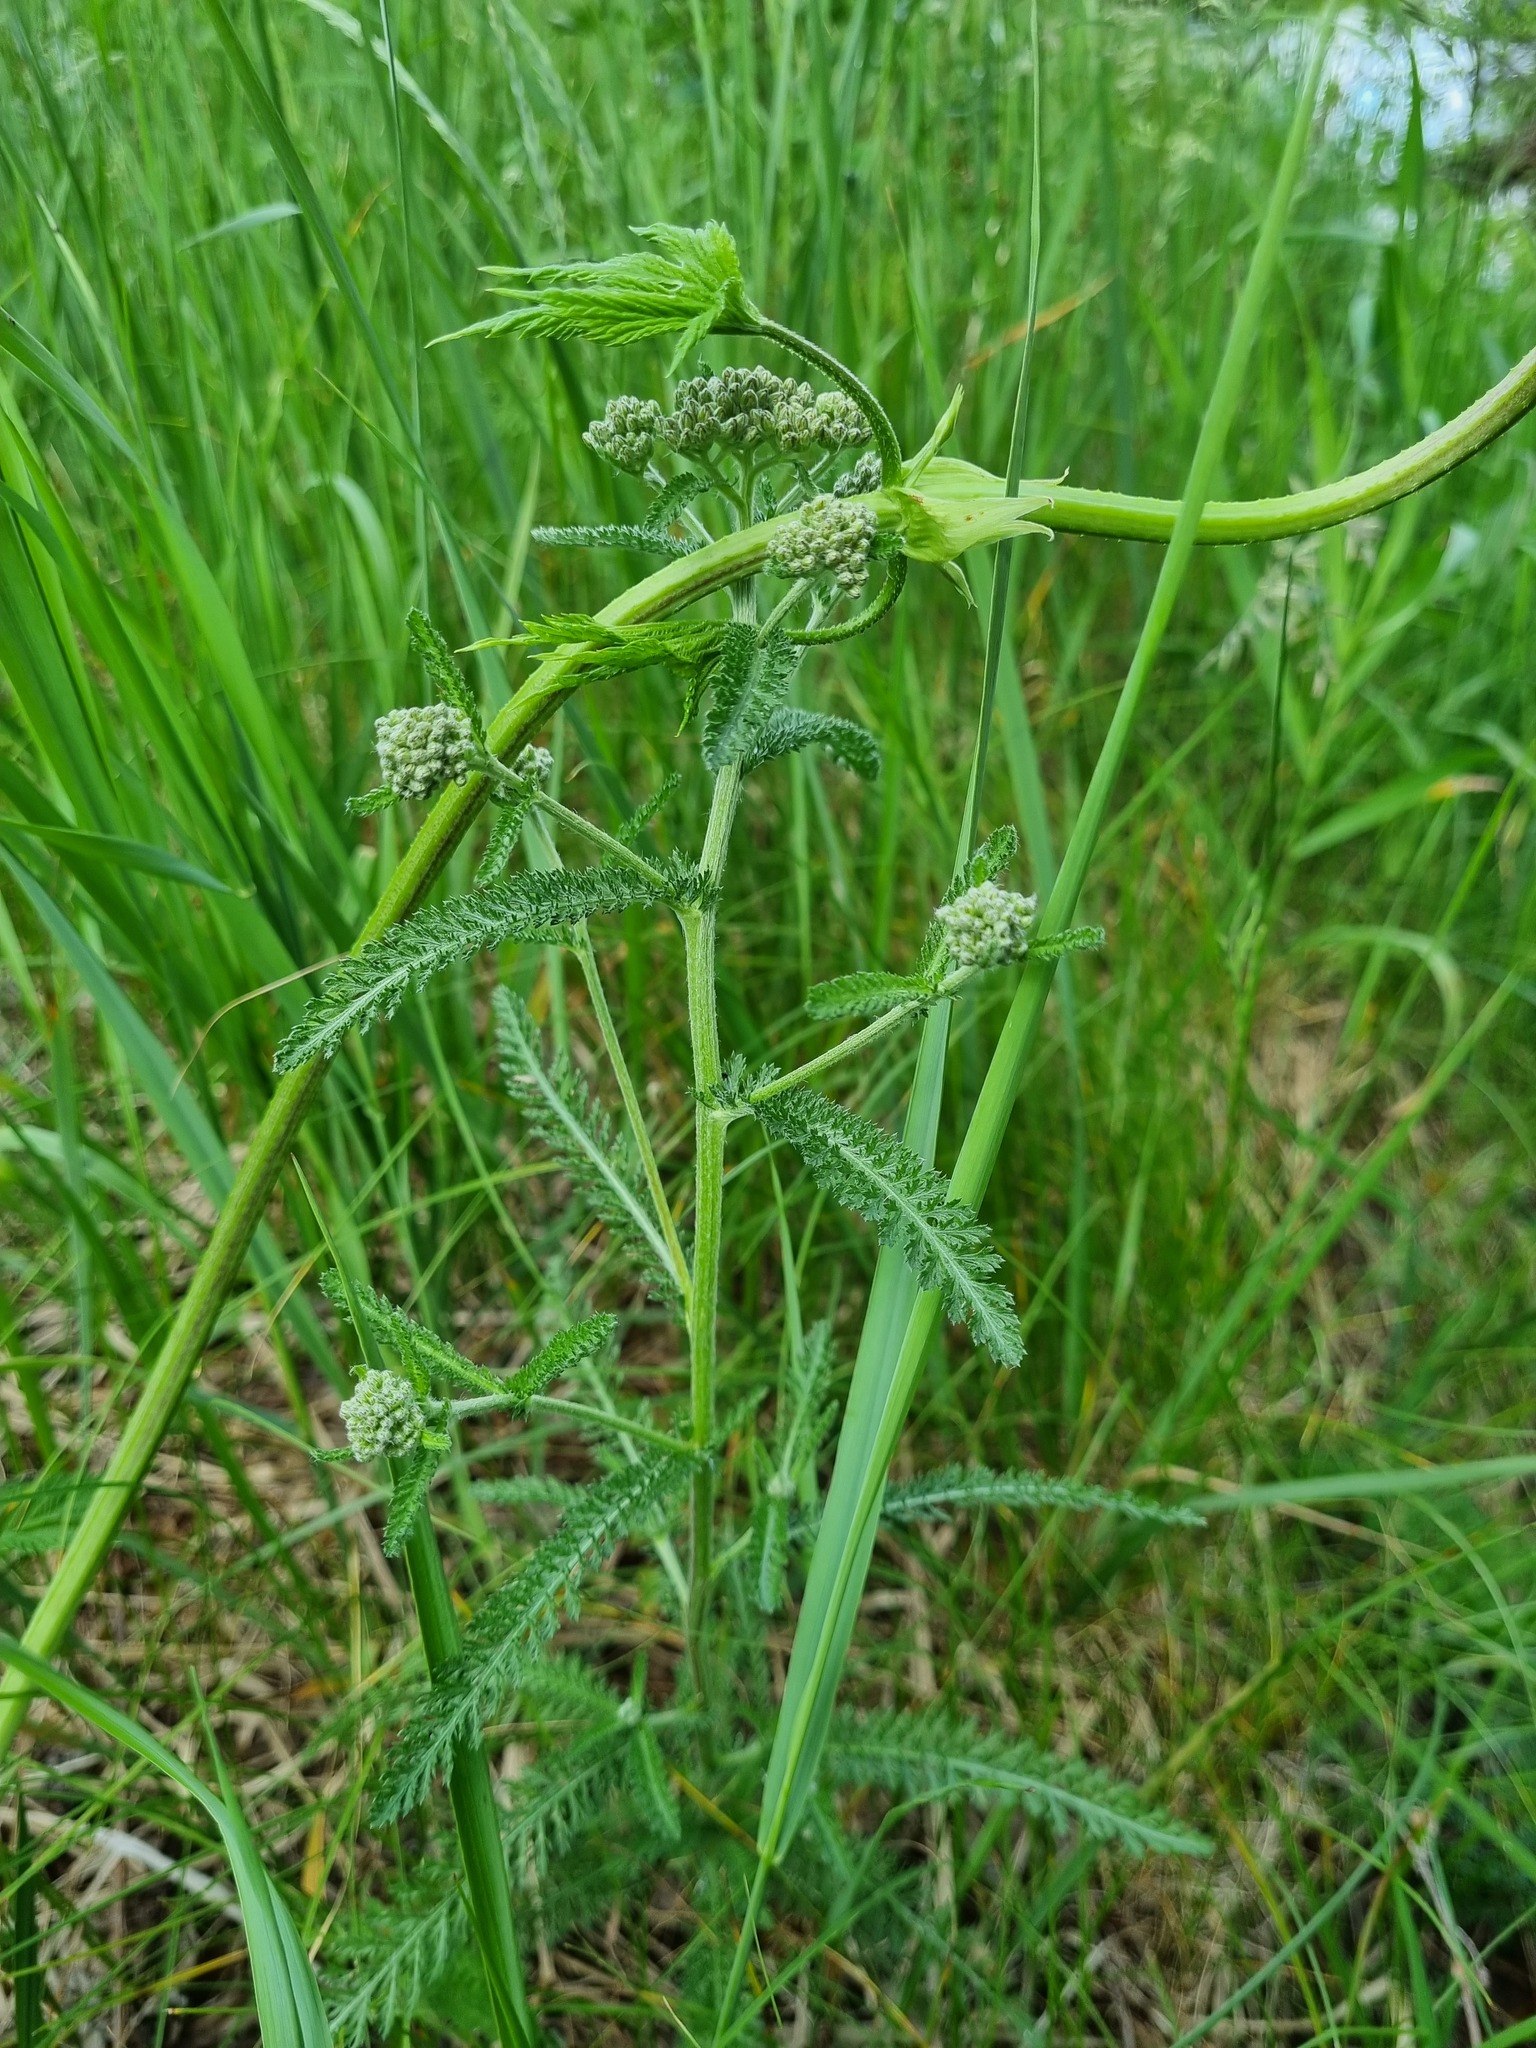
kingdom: Plantae
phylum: Tracheophyta
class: Magnoliopsida
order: Asterales
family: Asteraceae
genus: Achillea
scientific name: Achillea millefolium
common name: Yarrow
